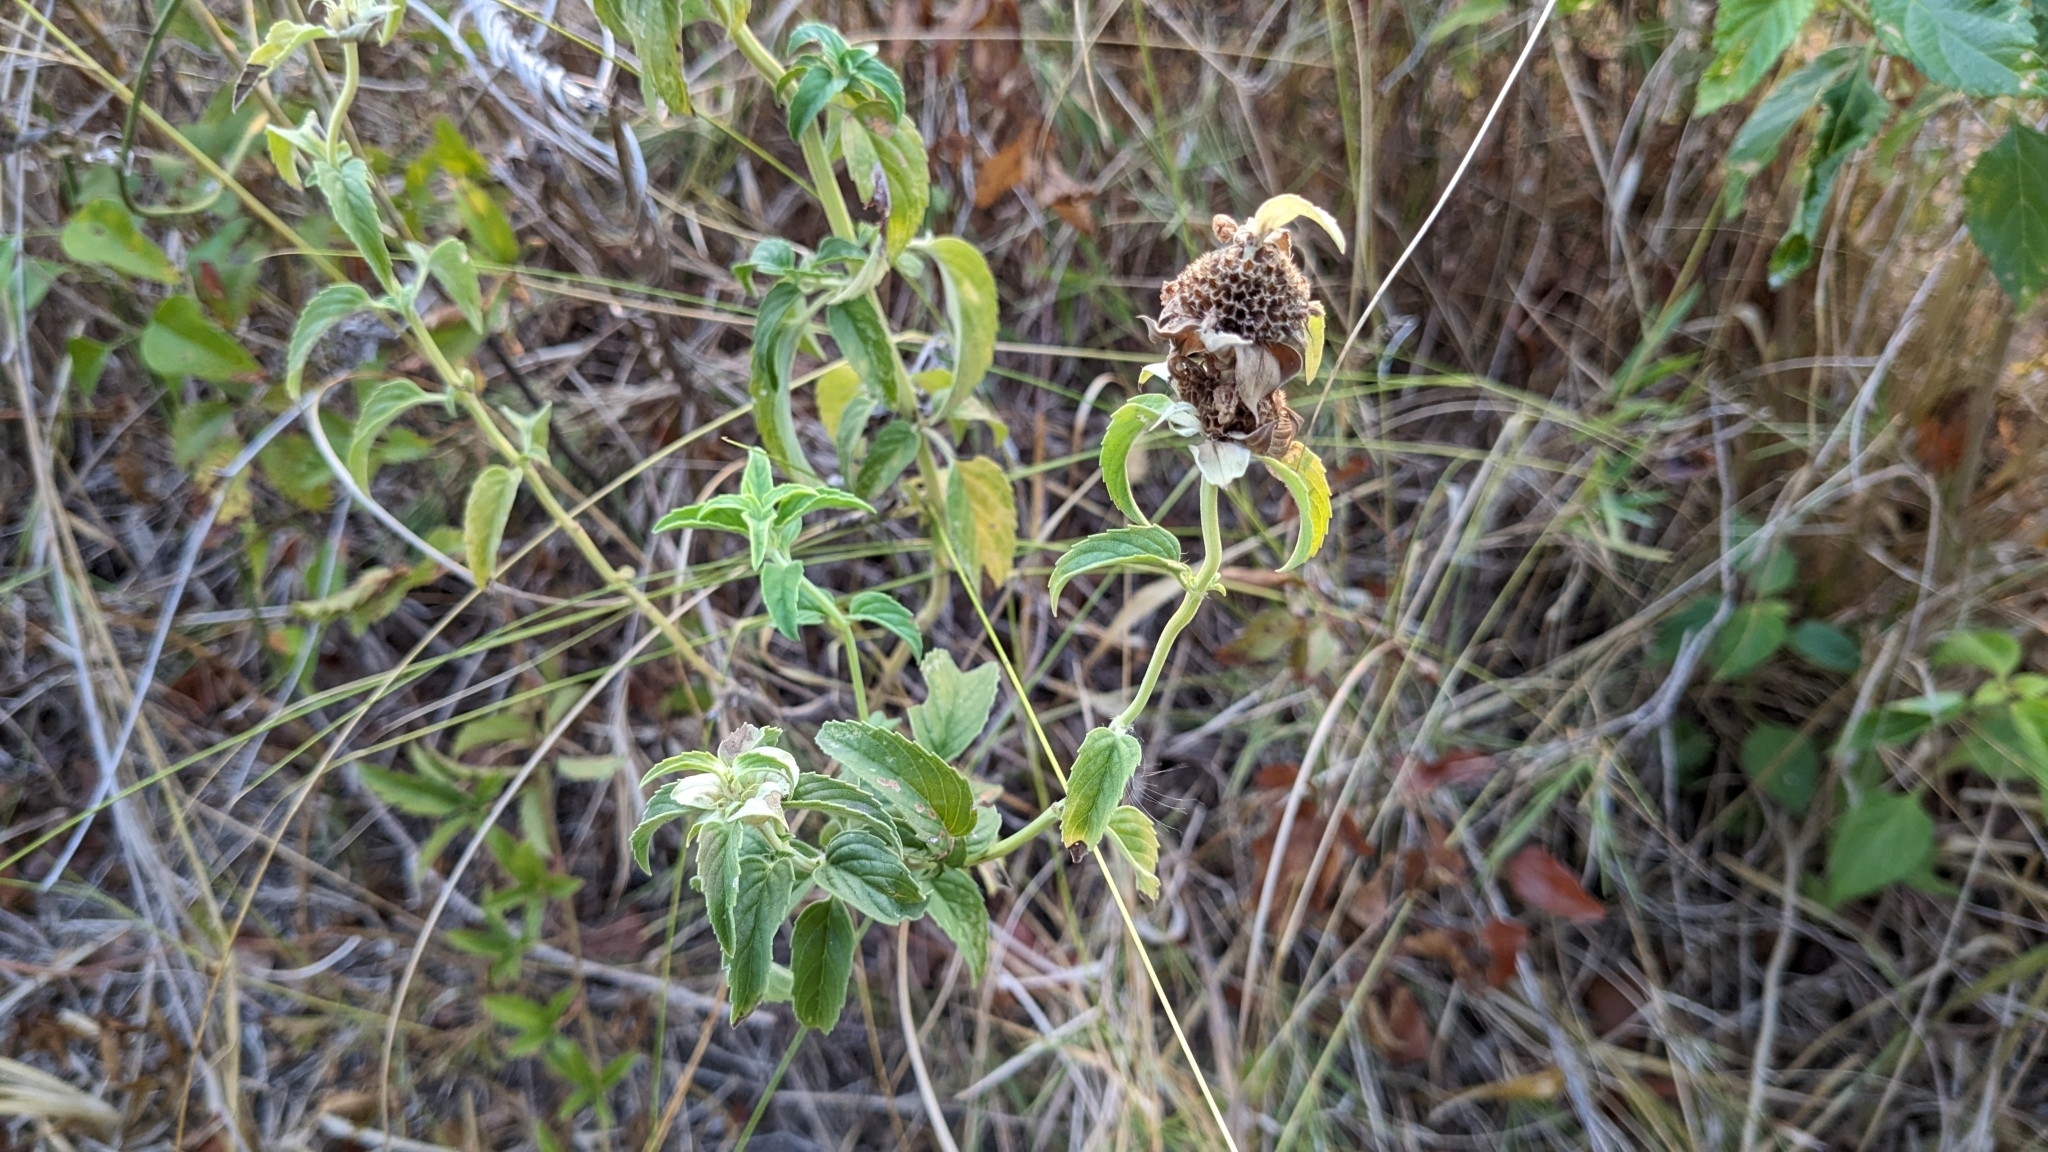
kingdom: Plantae
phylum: Tracheophyta
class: Magnoliopsida
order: Lamiales
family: Lamiaceae
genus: Monarda
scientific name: Monarda punctata
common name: Dotted monarda
